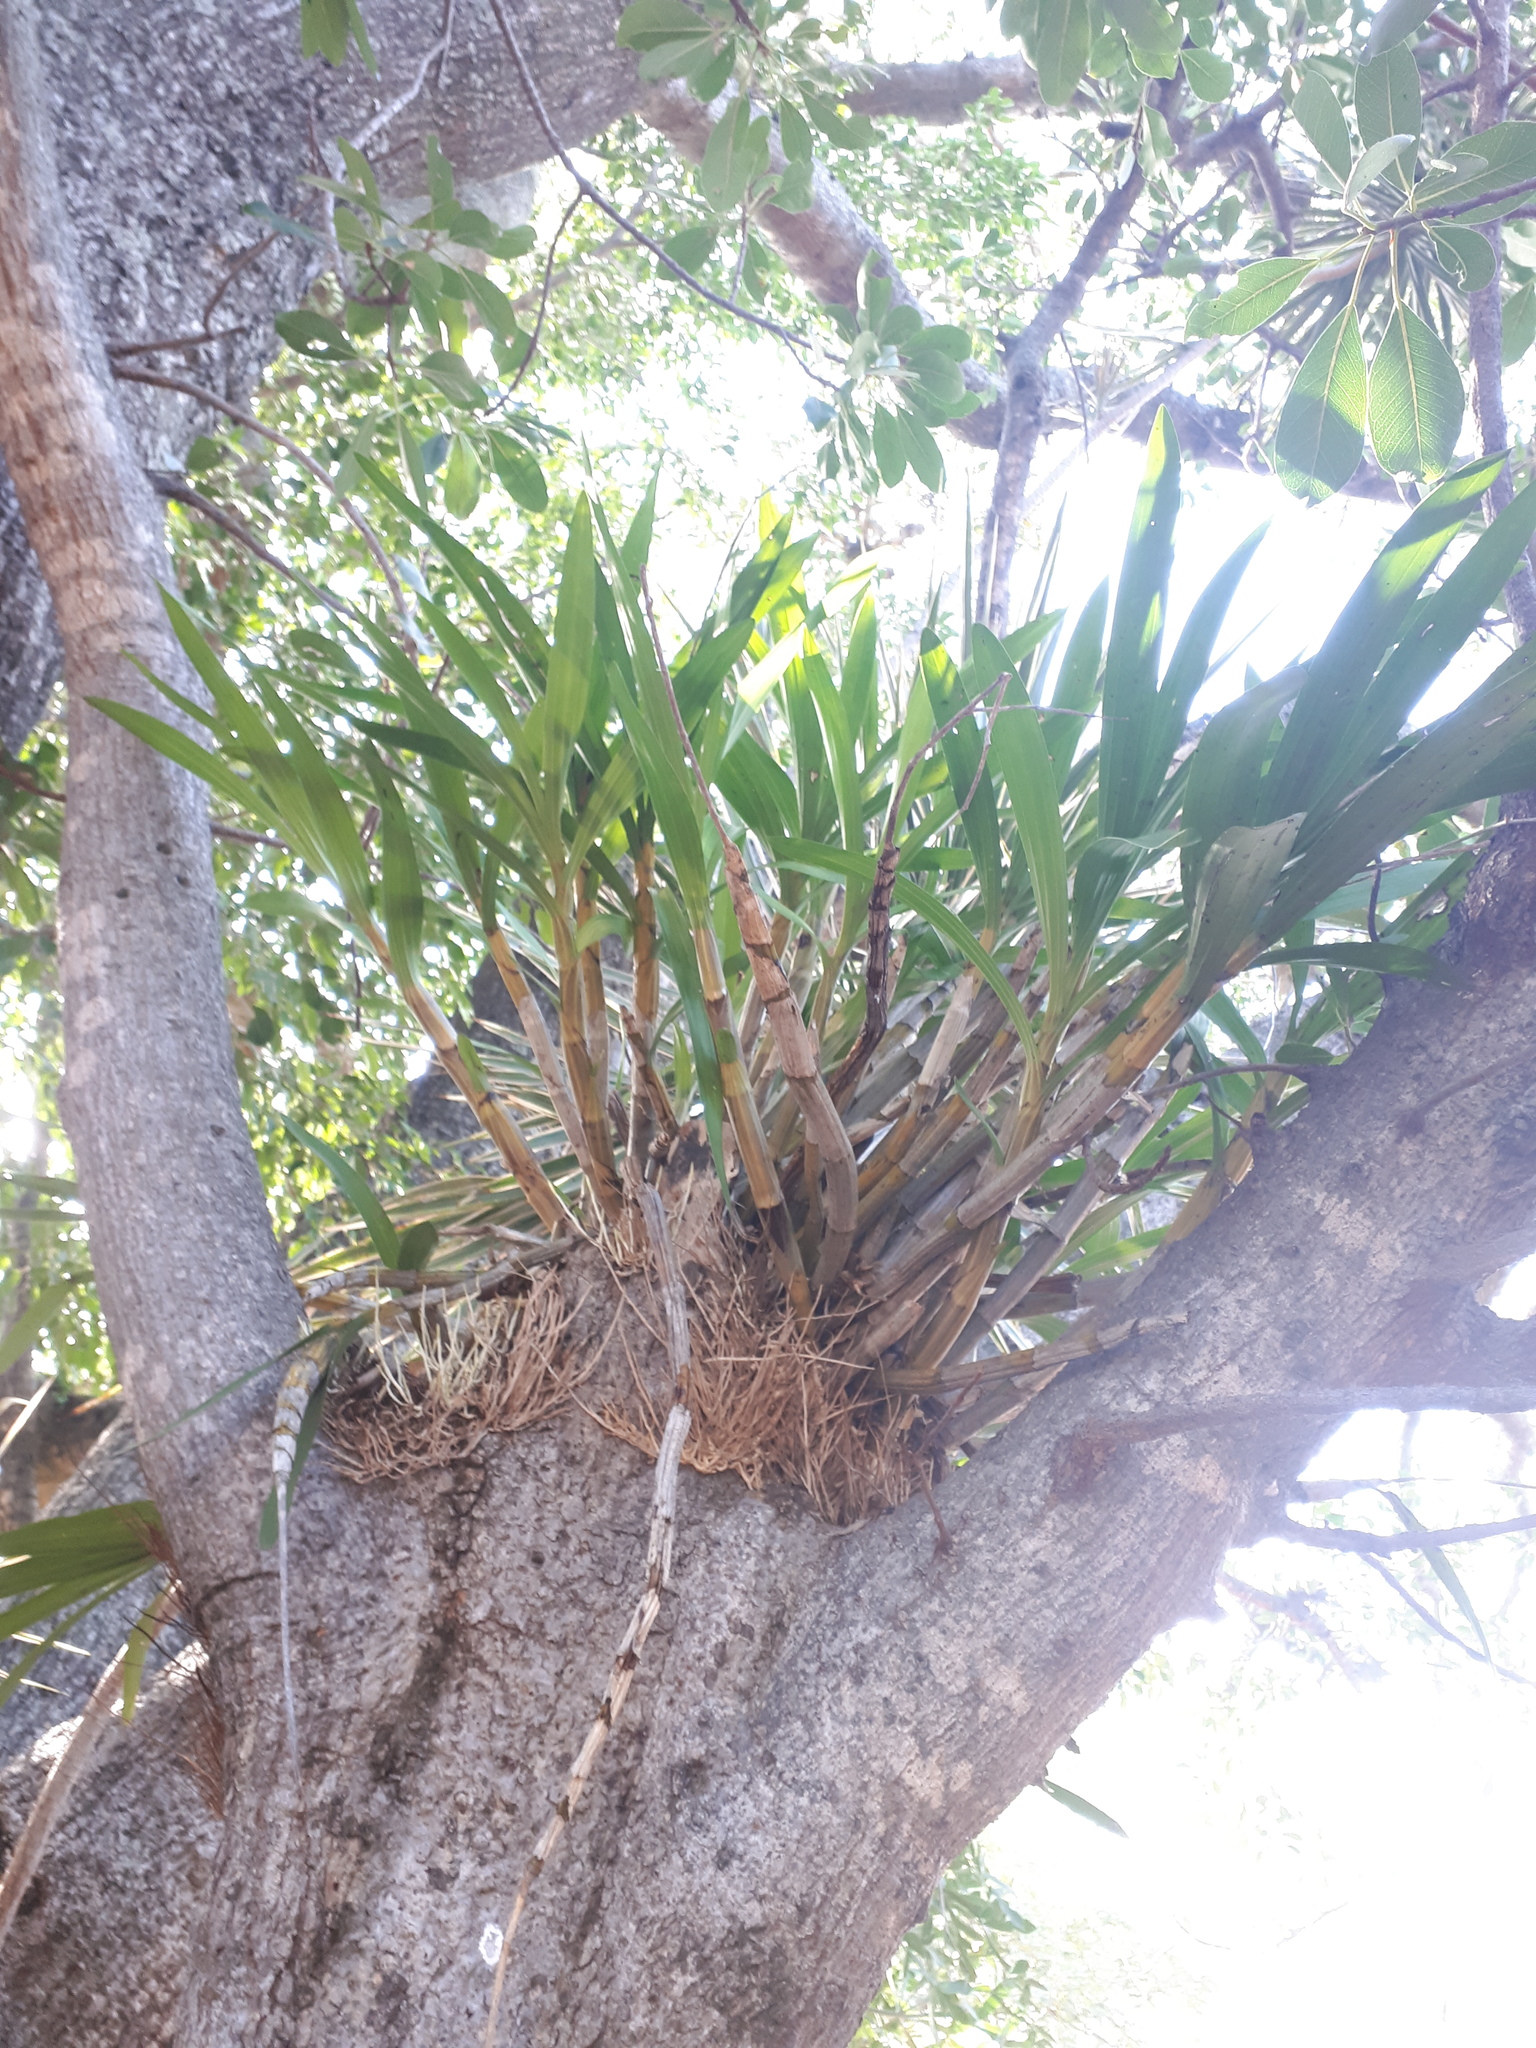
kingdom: Plantae
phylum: Tracheophyta
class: Liliopsida
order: Asparagales
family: Orchidaceae
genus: Ansellia
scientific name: Ansellia africana
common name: African ansellia
